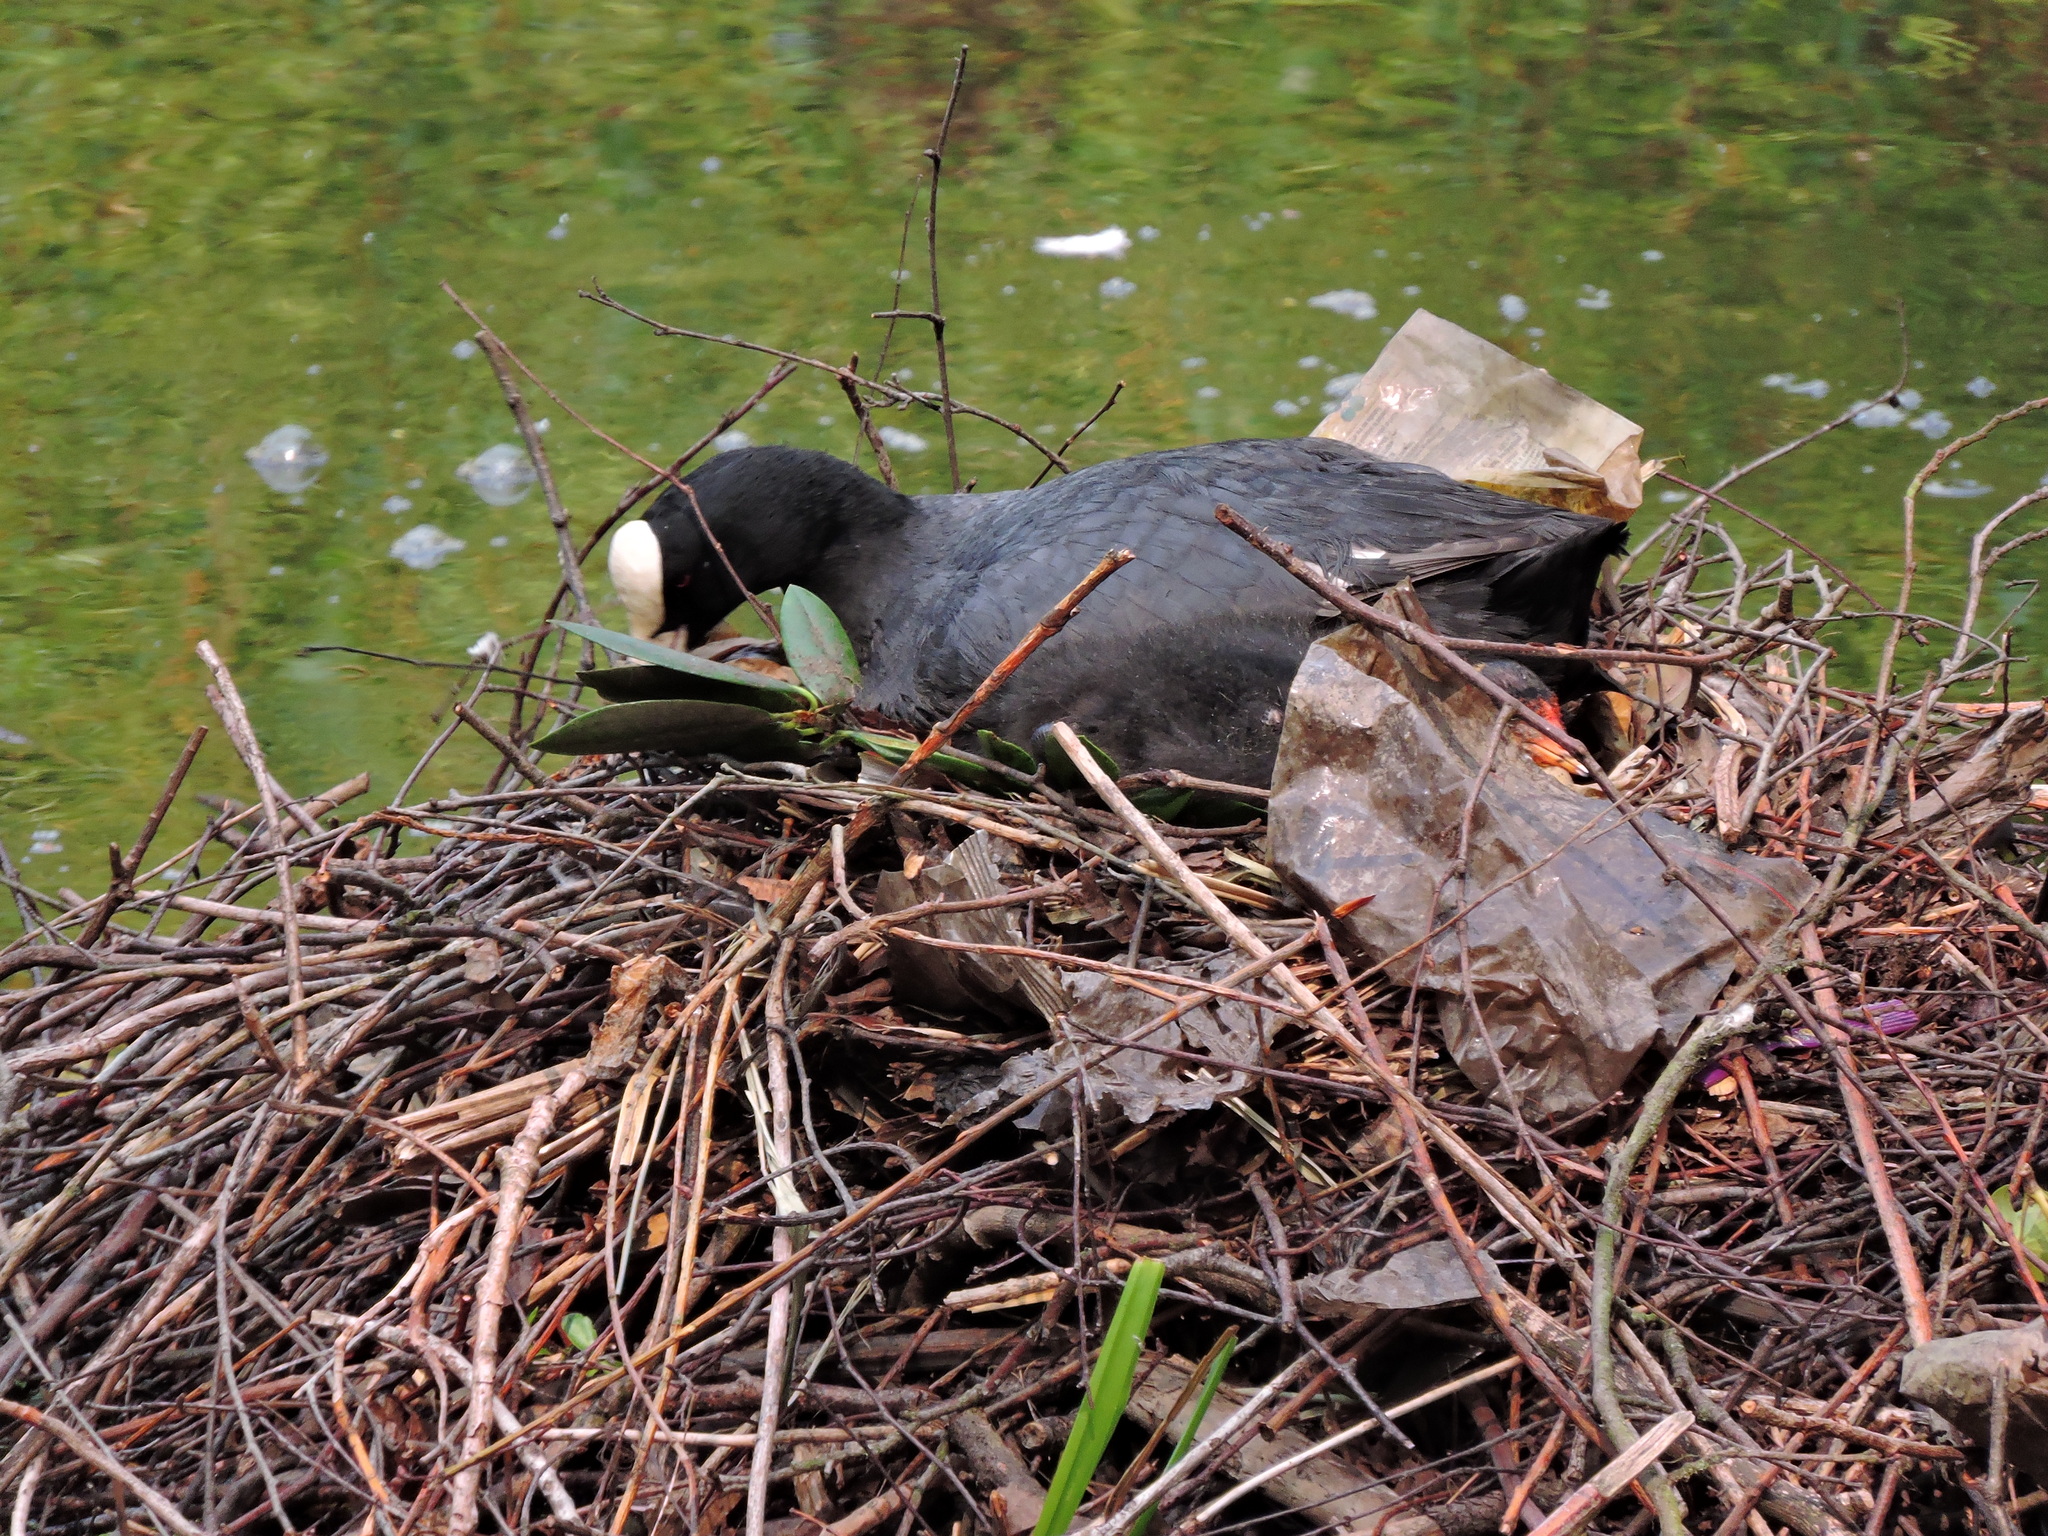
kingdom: Animalia
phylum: Chordata
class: Aves
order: Gruiformes
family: Rallidae
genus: Fulica
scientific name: Fulica atra
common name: Eurasian coot
